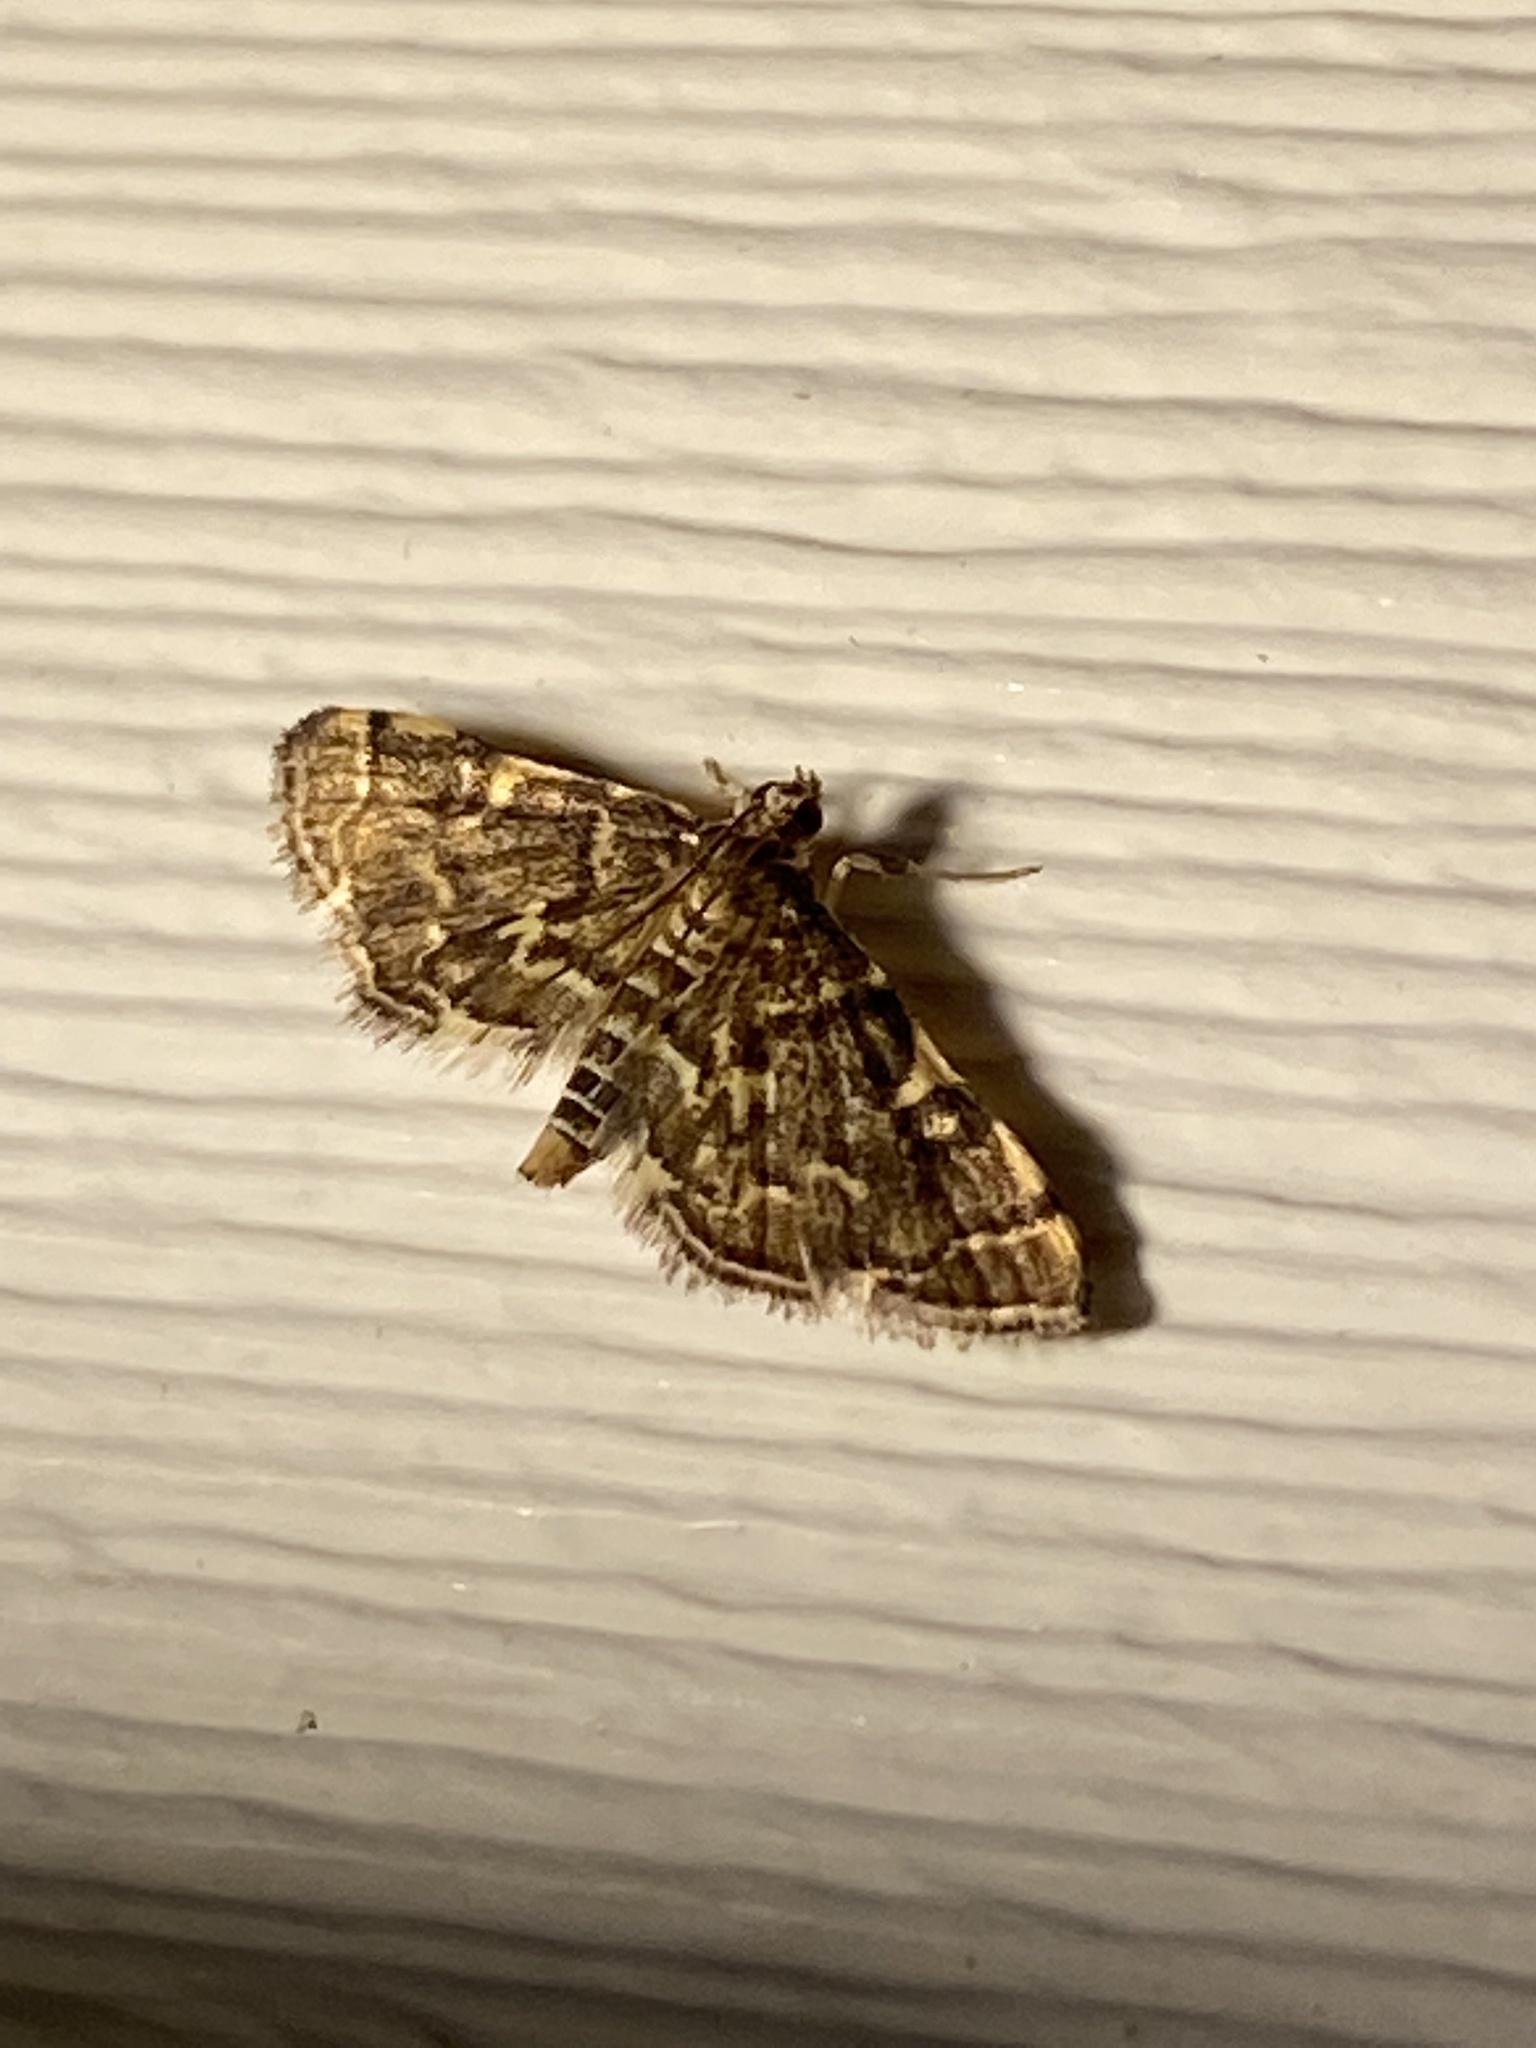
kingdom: Animalia
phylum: Arthropoda
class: Insecta
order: Lepidoptera
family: Crambidae
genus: Anageshna
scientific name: Anageshna primordialis
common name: Yellow-spotted webworm moth
